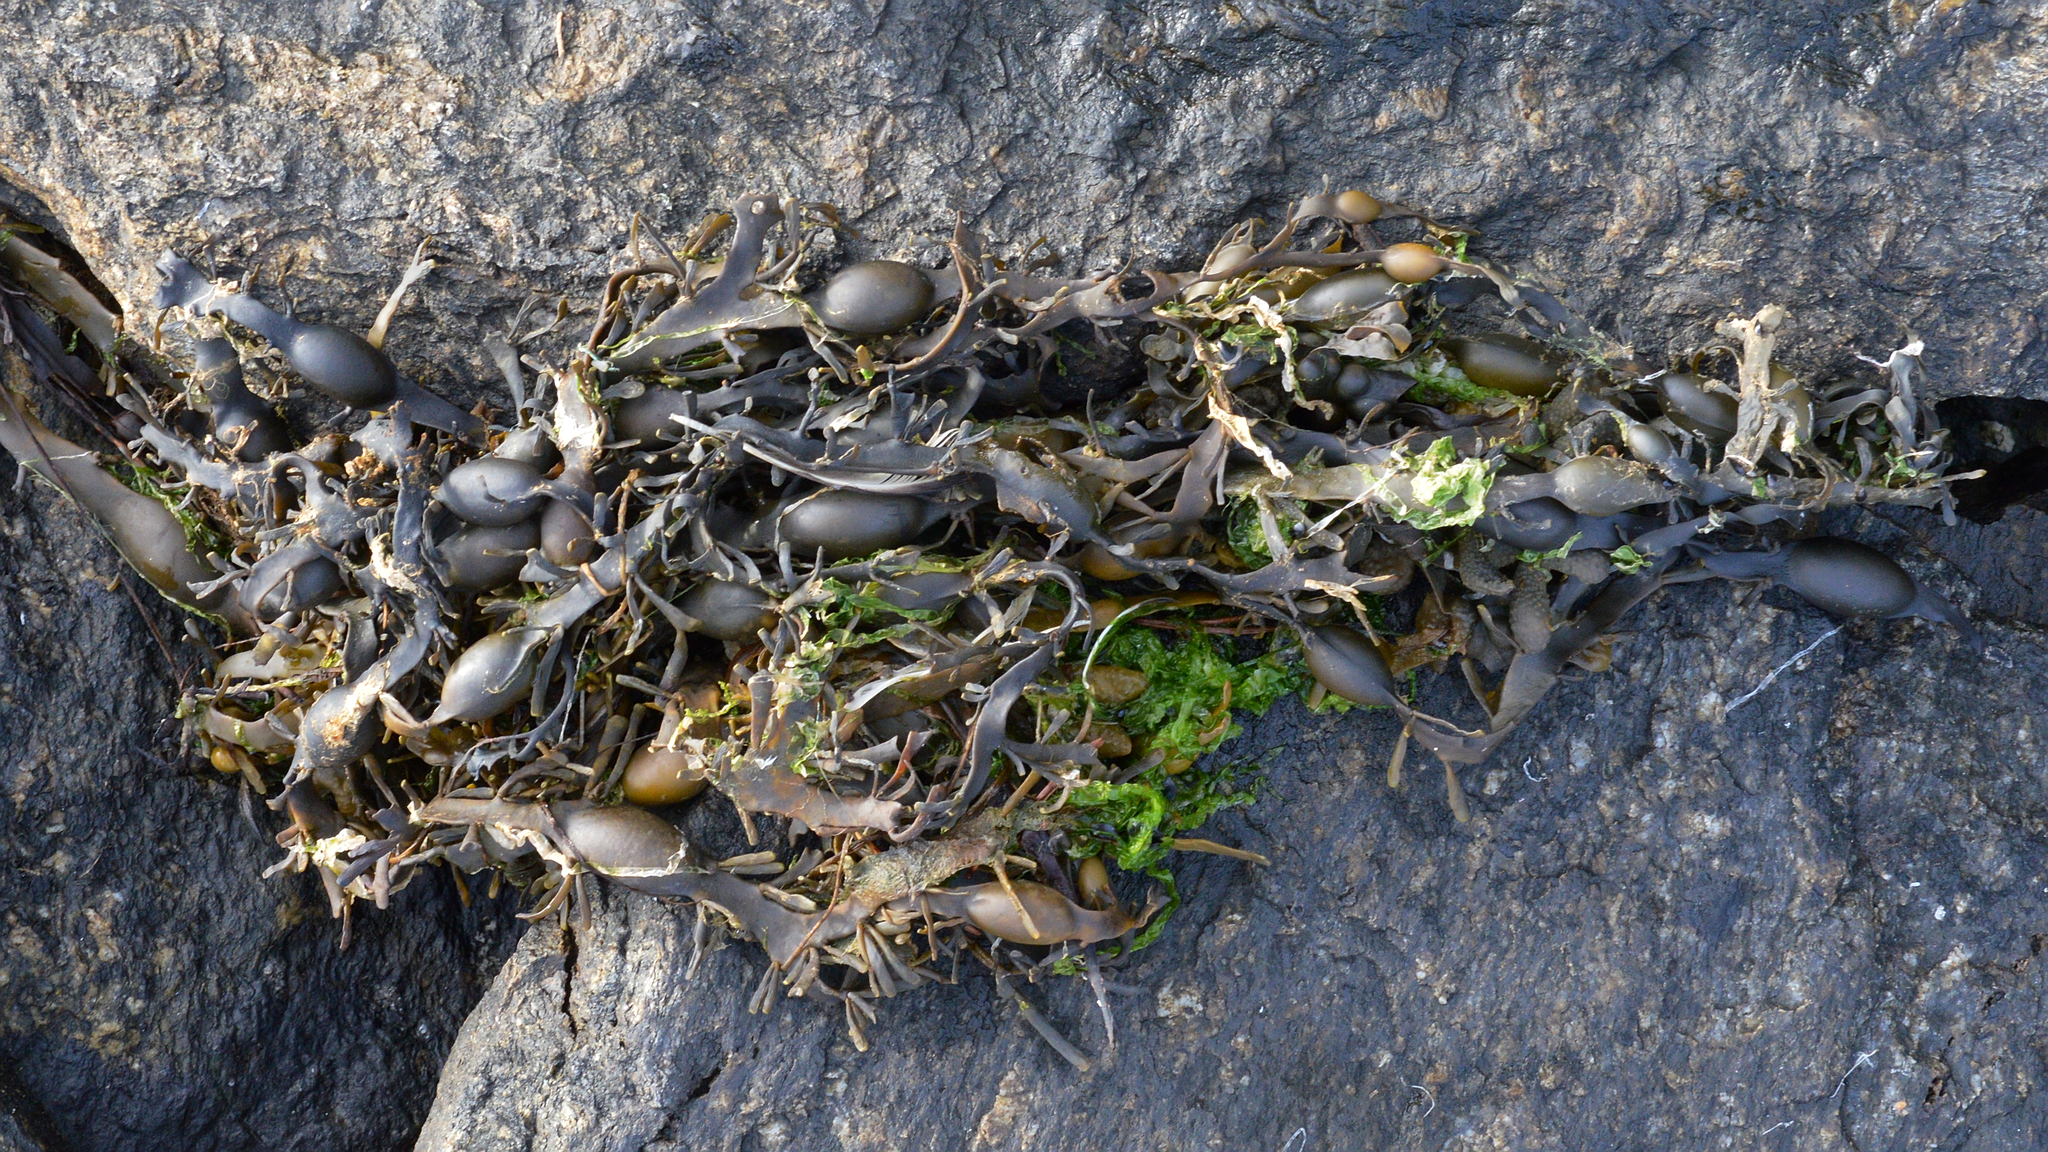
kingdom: Chromista
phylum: Ochrophyta
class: Phaeophyceae
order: Fucales
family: Fucaceae
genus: Ascophyllum
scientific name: Ascophyllum nodosum
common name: Knotted wrack
